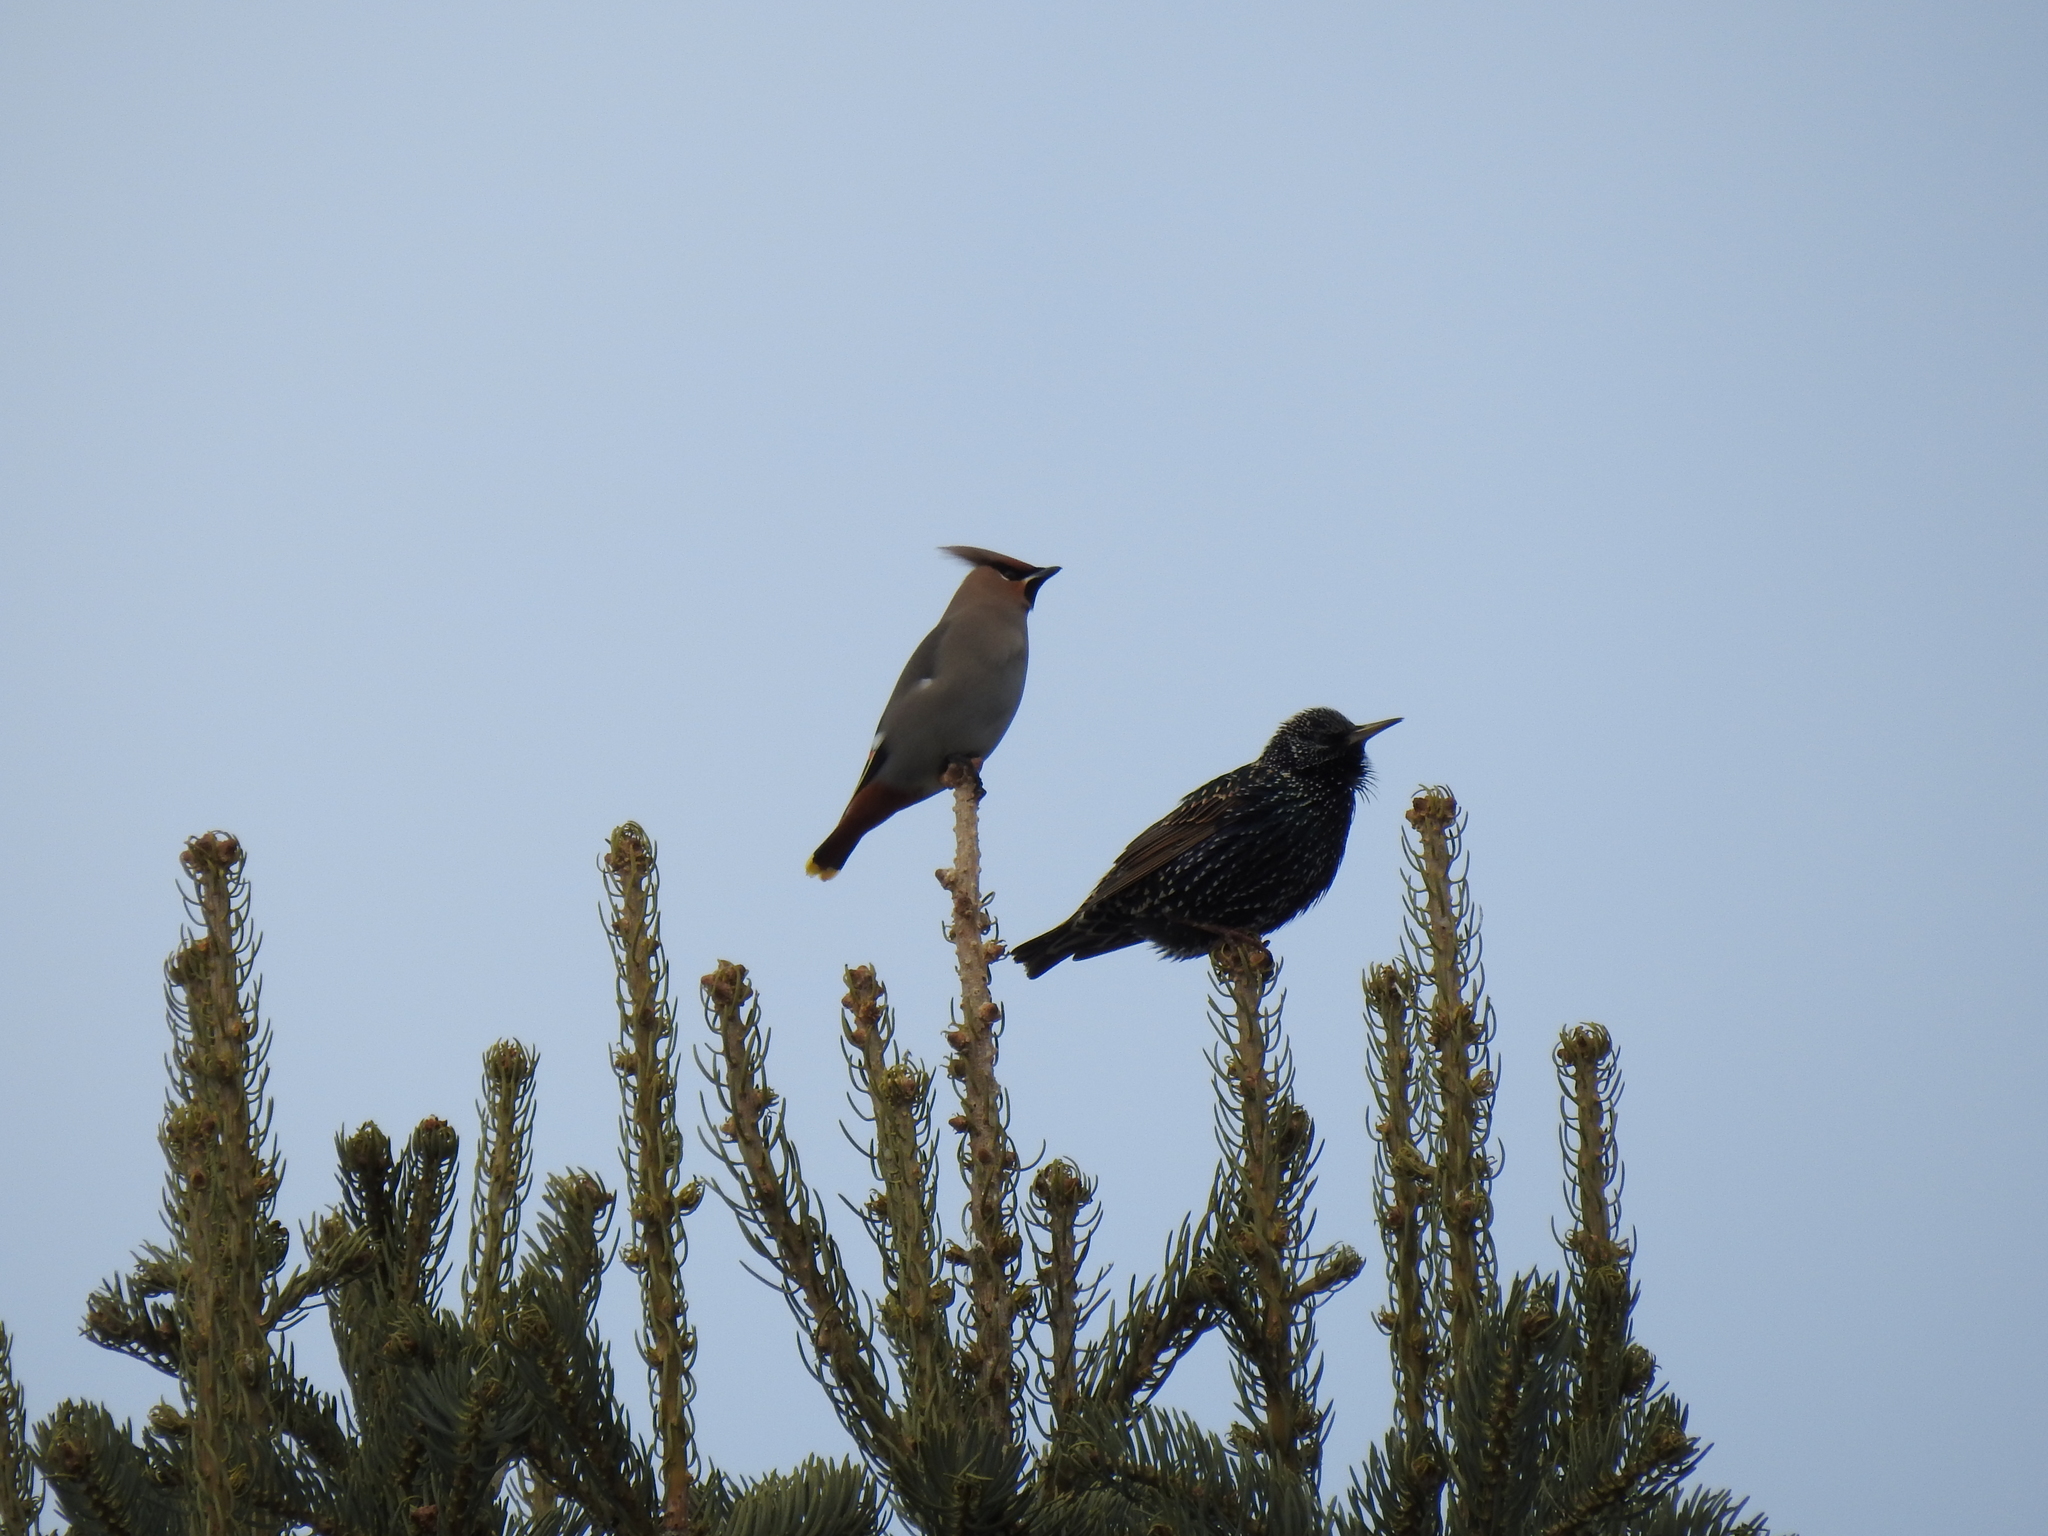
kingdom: Animalia
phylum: Chordata
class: Aves
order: Passeriformes
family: Bombycillidae
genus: Bombycilla
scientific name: Bombycilla garrulus
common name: Bohemian waxwing
